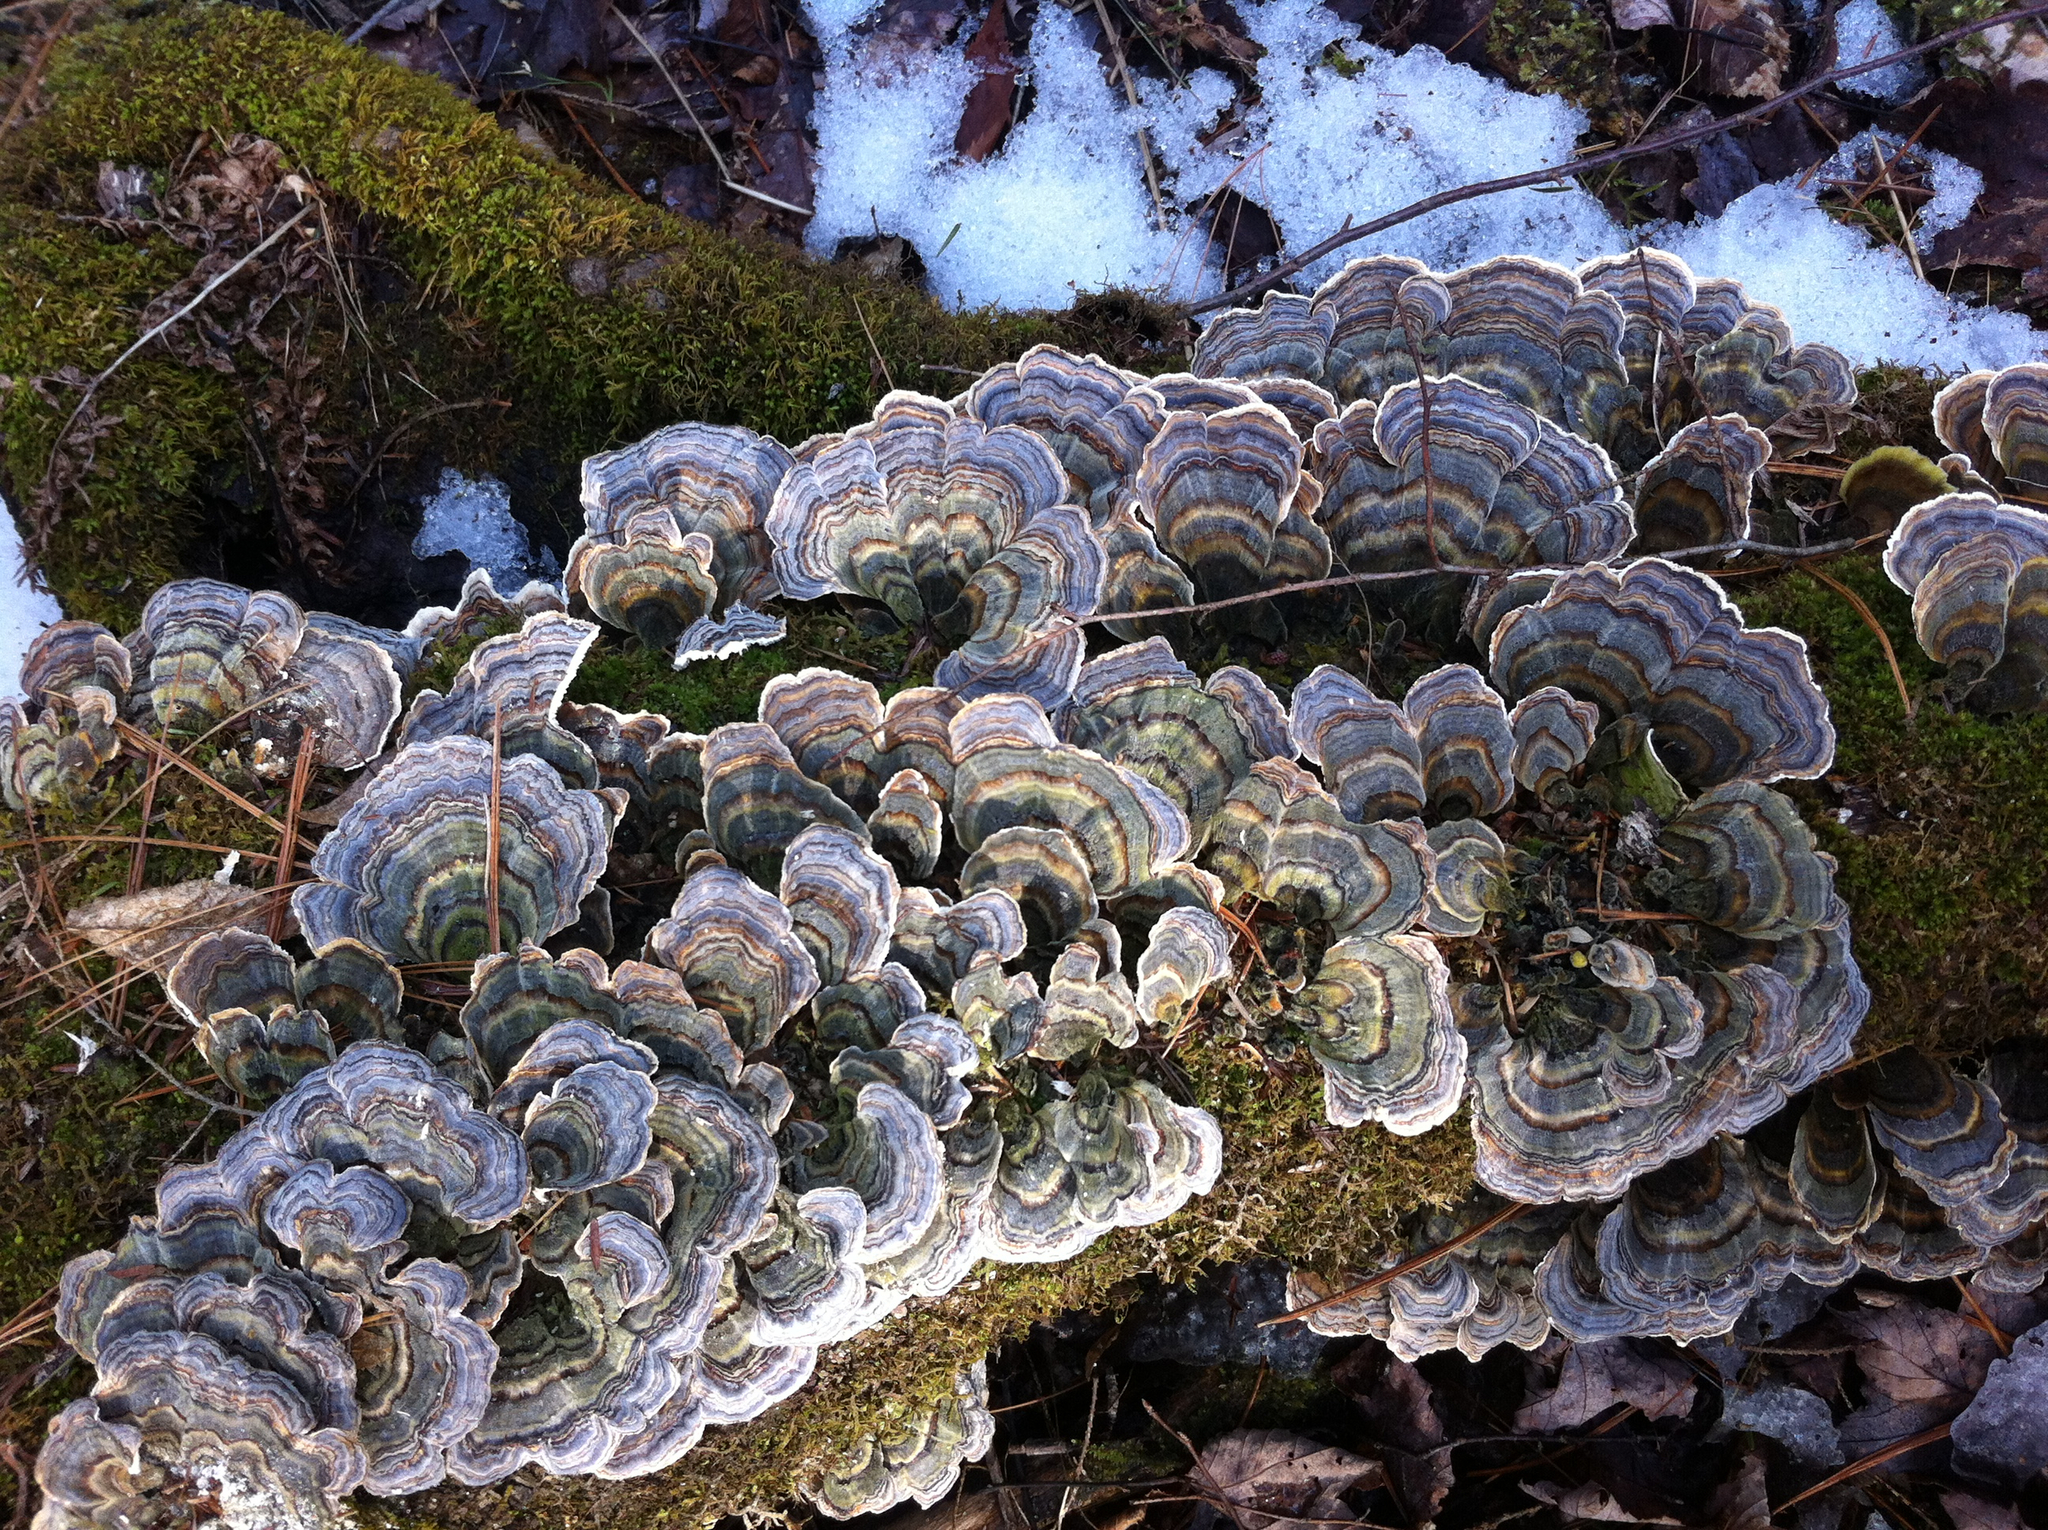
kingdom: Fungi
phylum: Basidiomycota
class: Agaricomycetes
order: Polyporales
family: Polyporaceae
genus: Trametes
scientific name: Trametes versicolor
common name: Turkeytail
